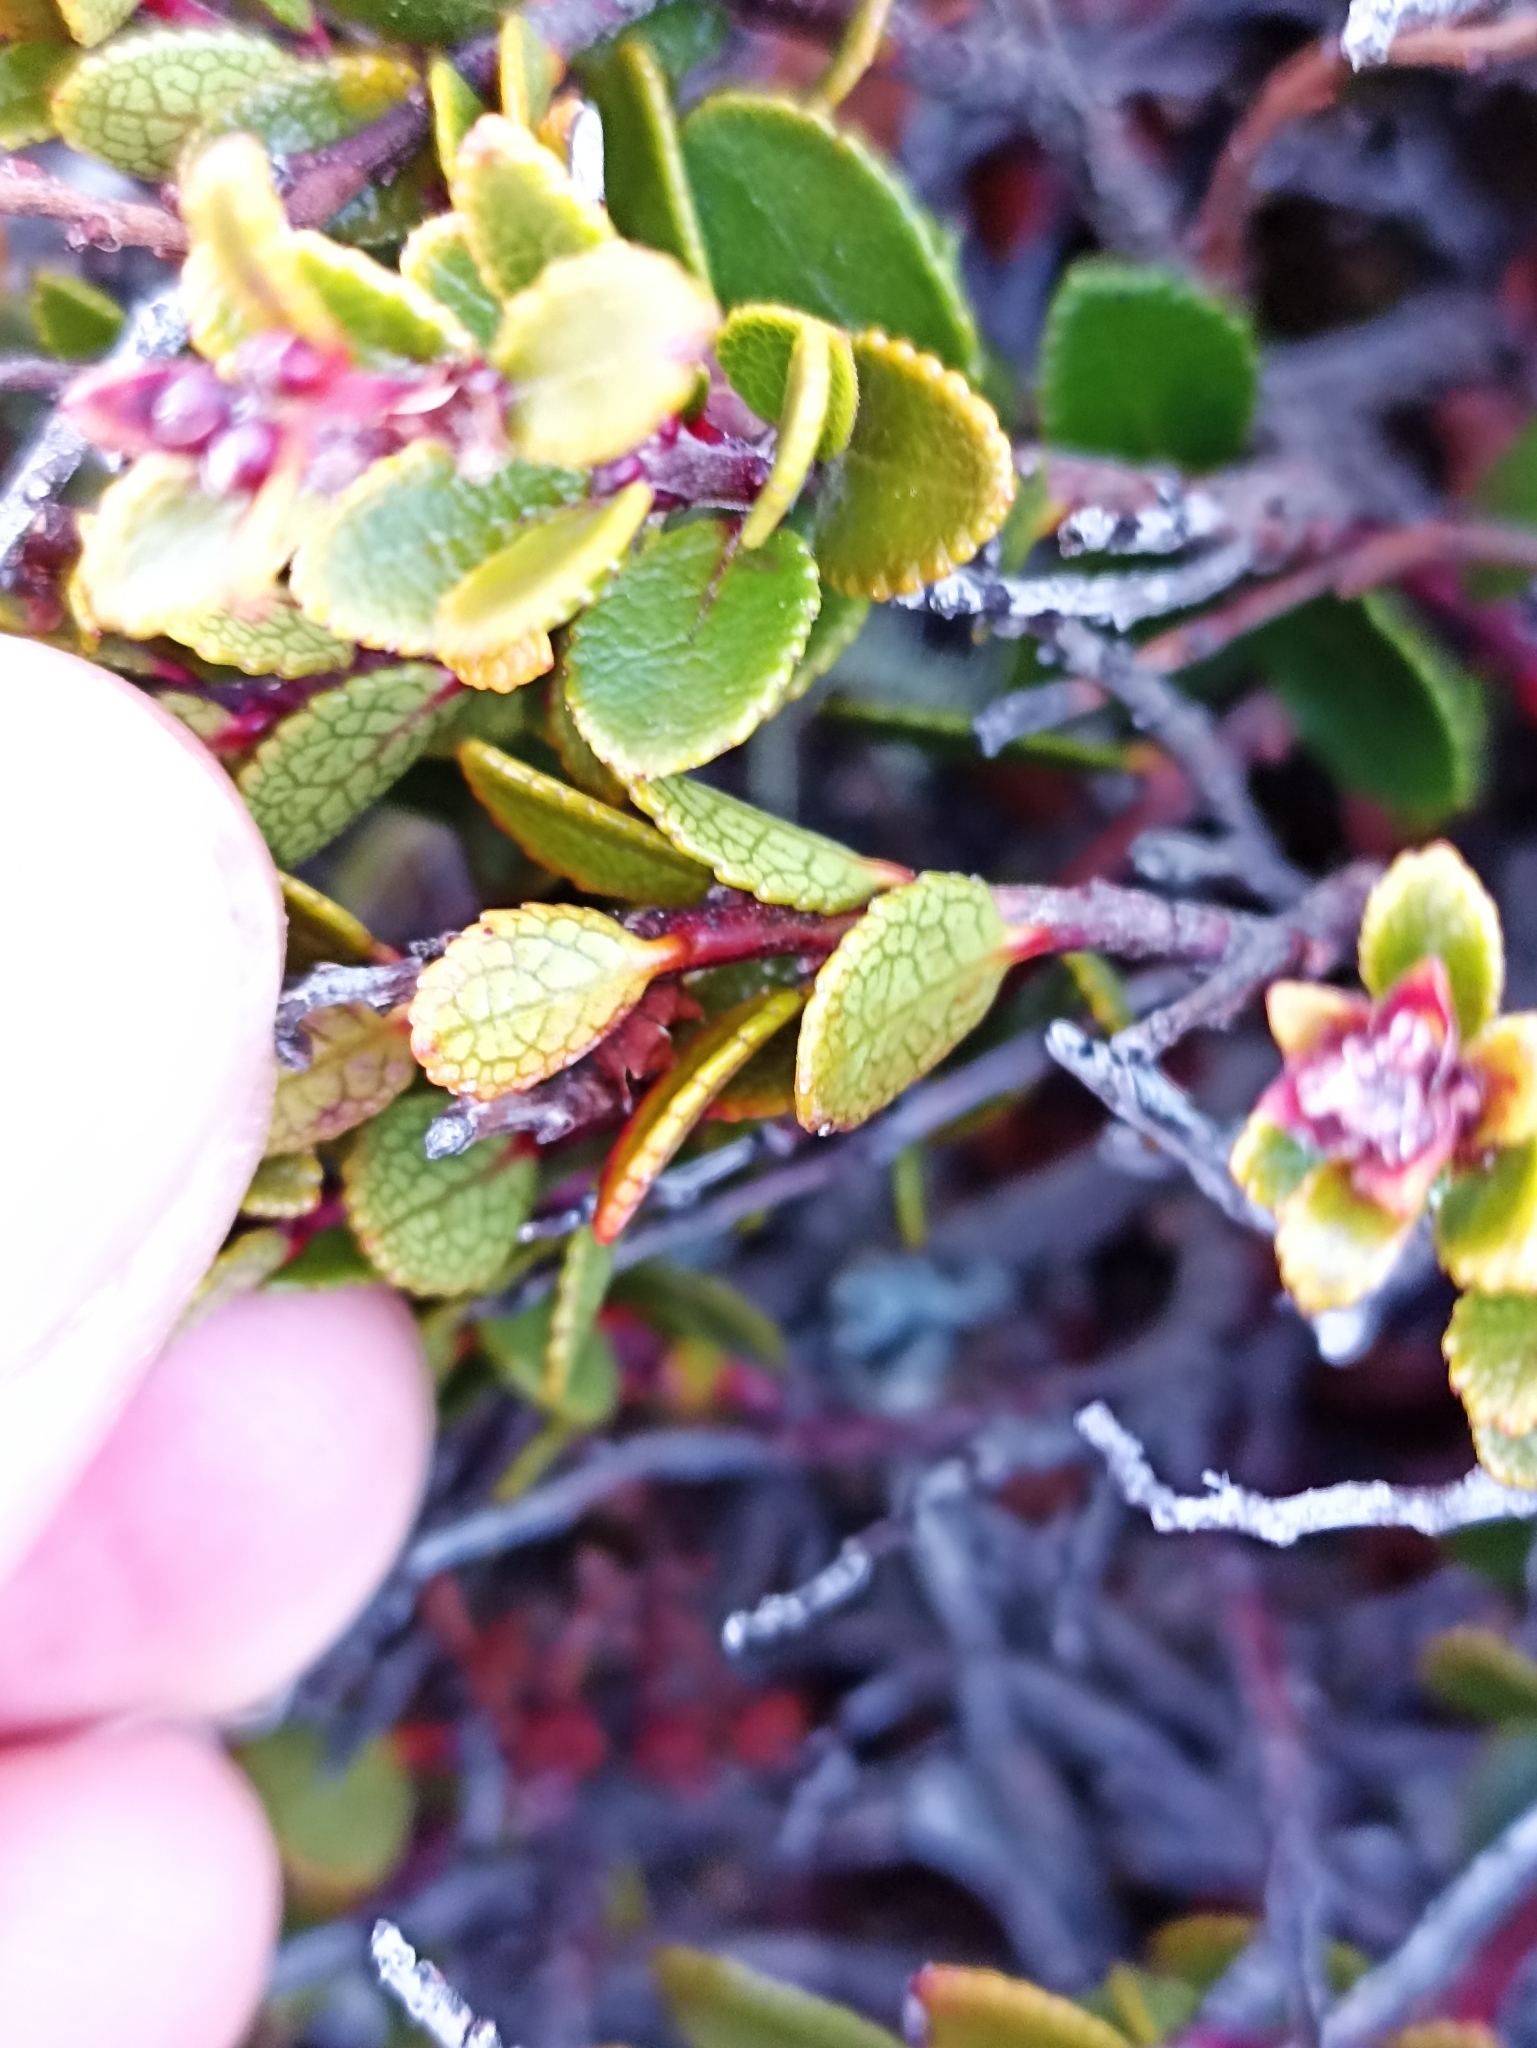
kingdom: Plantae
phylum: Tracheophyta
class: Magnoliopsida
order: Ericales
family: Ericaceae
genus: Gaultheria
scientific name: Gaultheria colensoi
